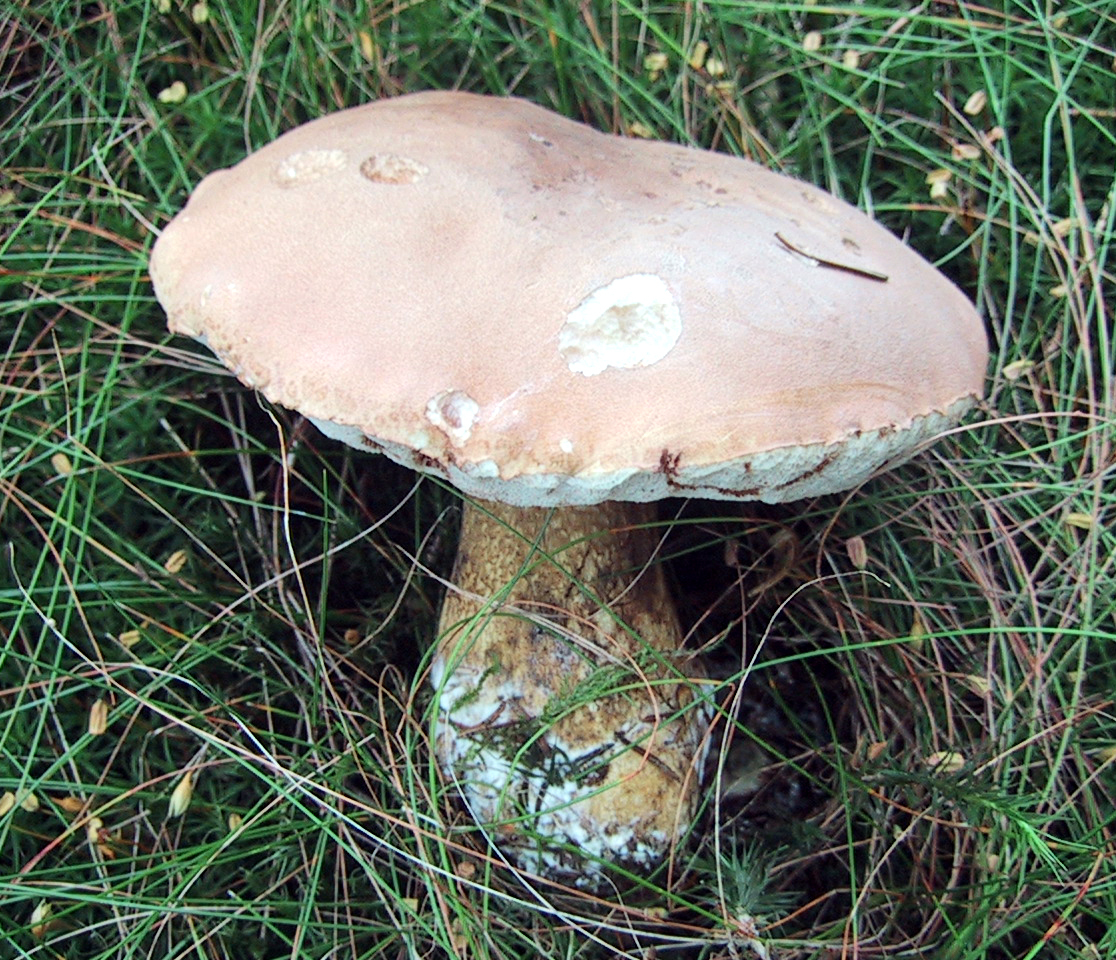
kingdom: Fungi
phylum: Basidiomycota
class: Agaricomycetes
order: Boletales
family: Boletaceae
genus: Tylopilus
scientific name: Tylopilus felleus
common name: Bitter bolete
